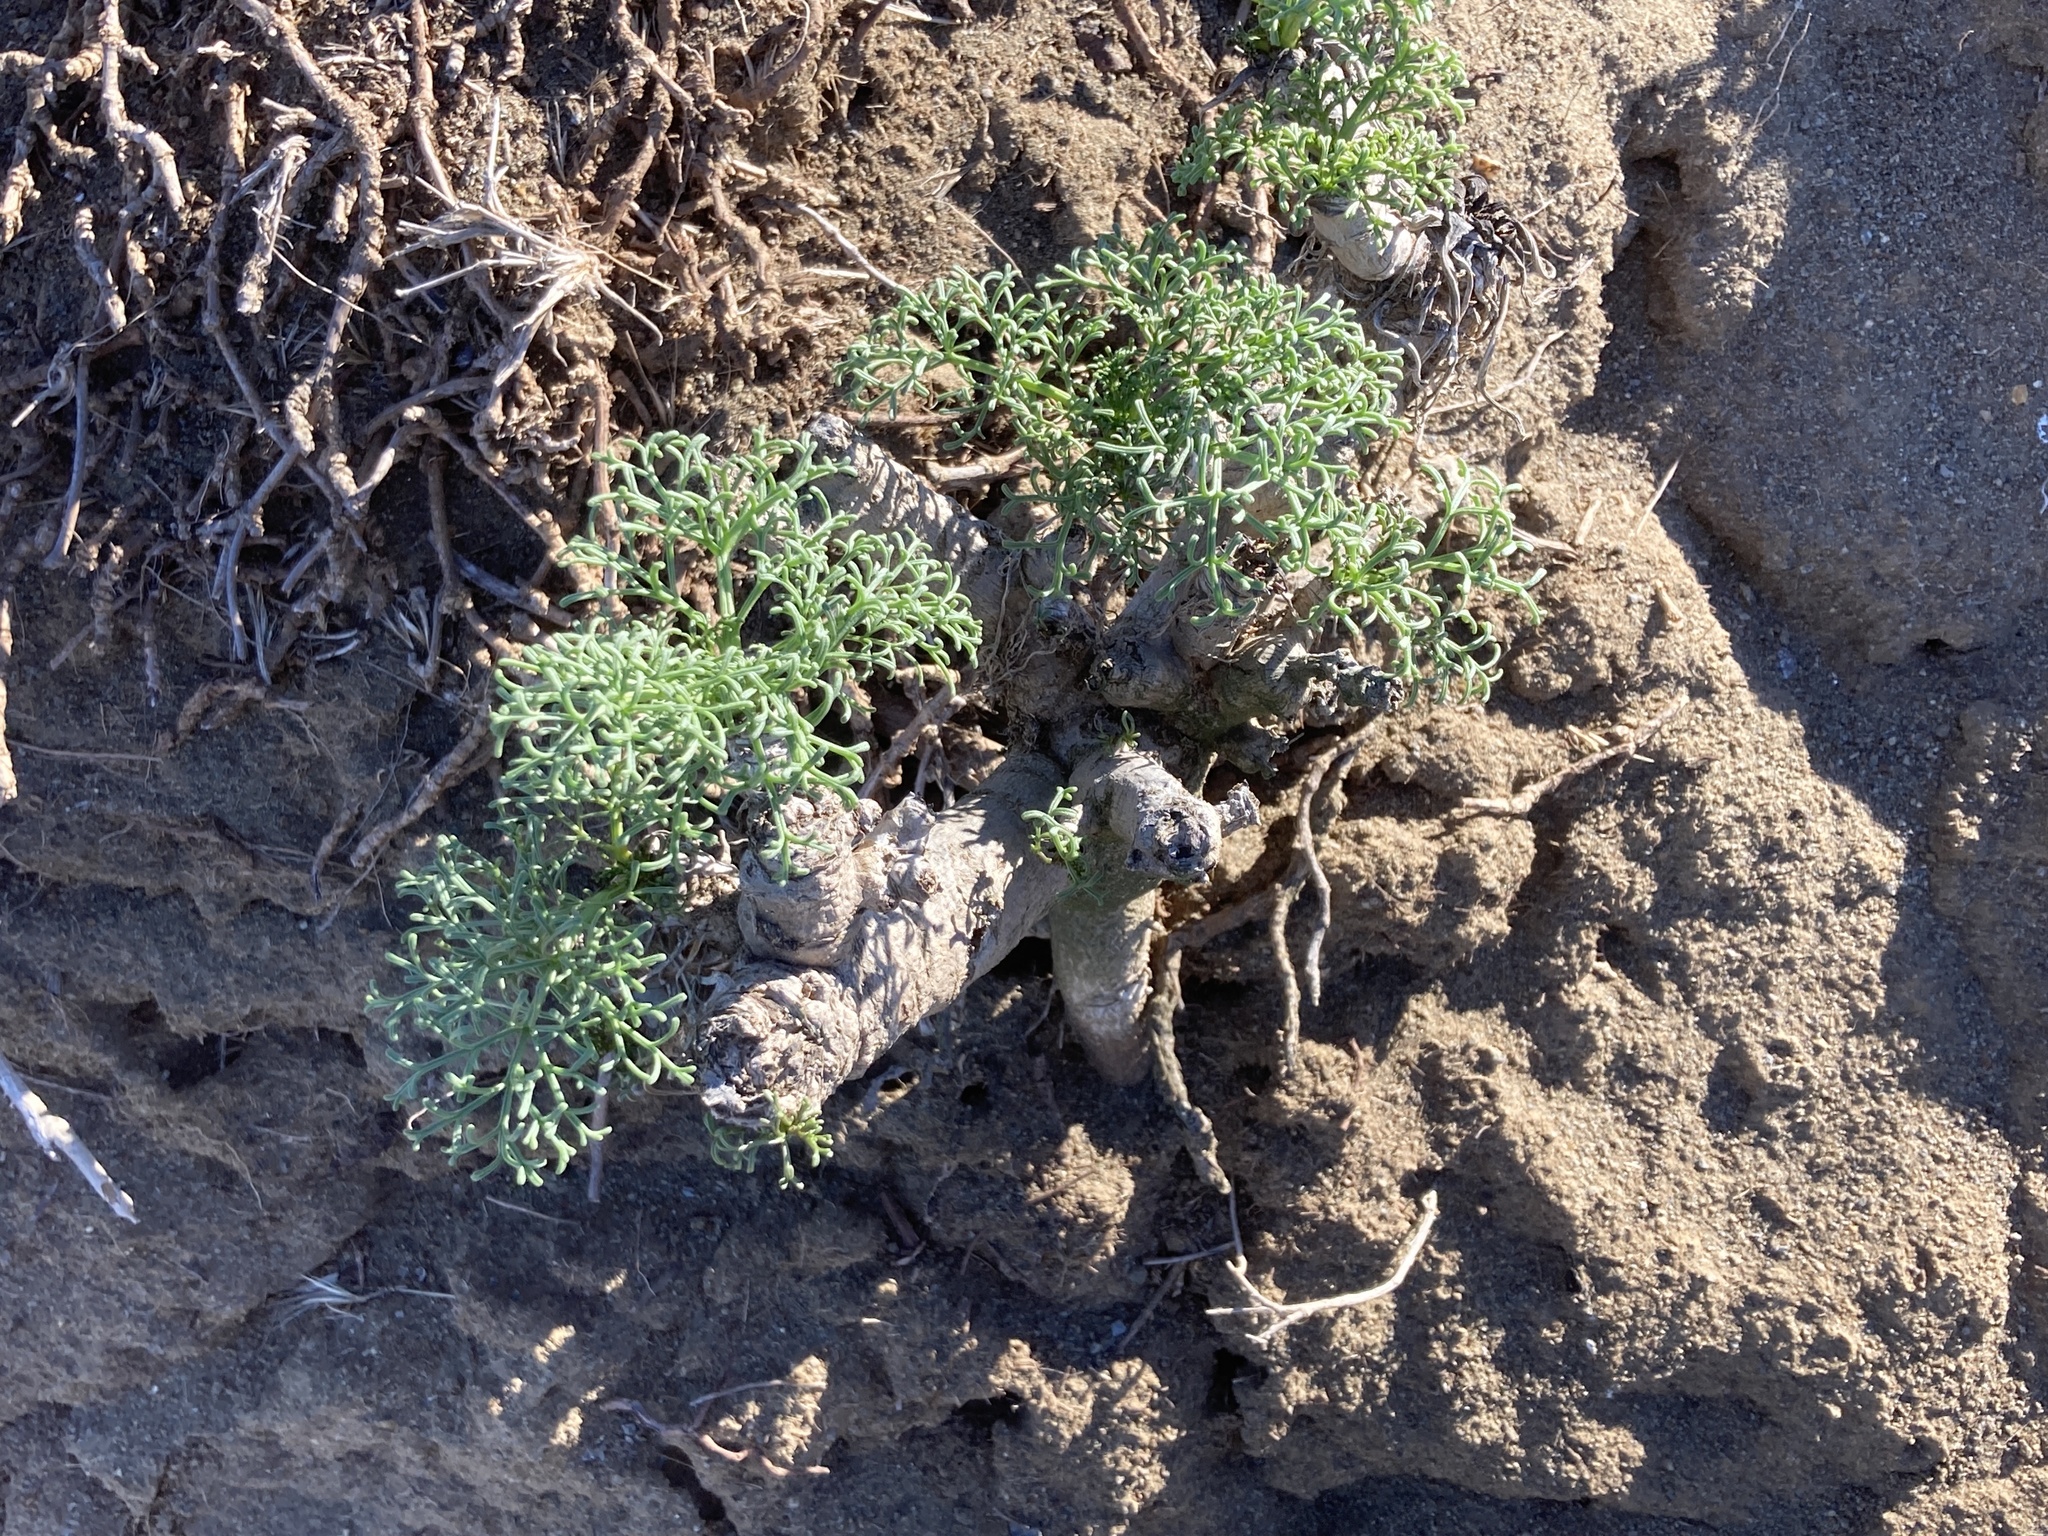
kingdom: Plantae
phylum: Tracheophyta
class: Magnoliopsida
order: Asterales
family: Asteraceae
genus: Coreopsis
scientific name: Coreopsis gigantea
